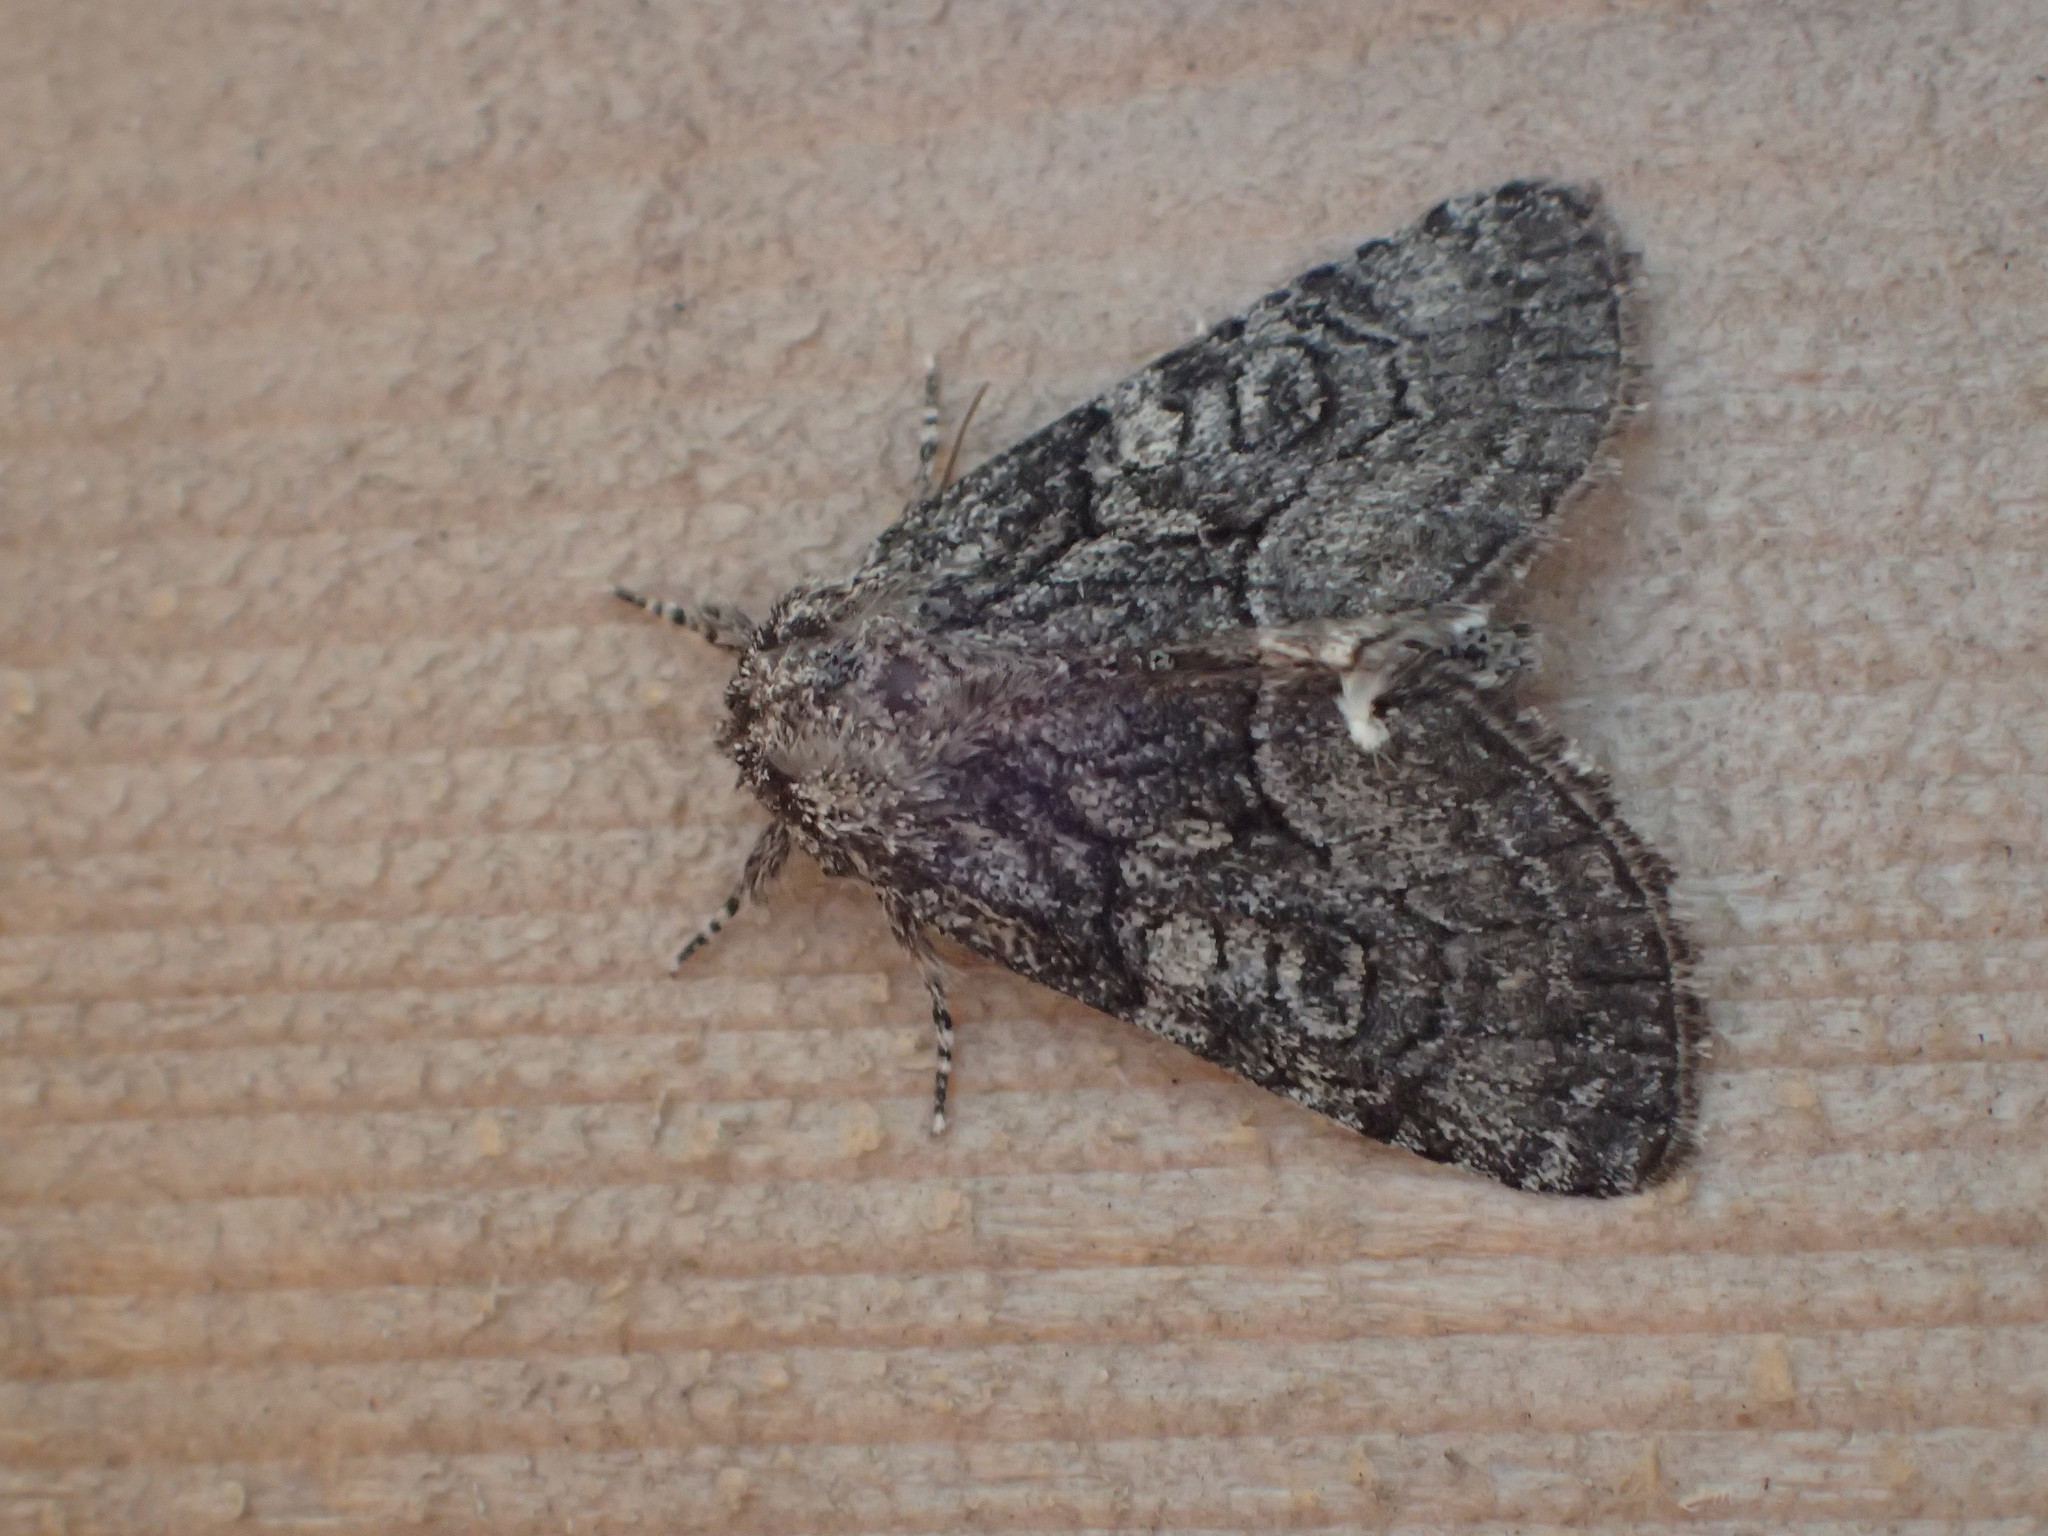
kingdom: Animalia
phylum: Arthropoda
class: Insecta
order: Lepidoptera
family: Noctuidae
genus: Raphia
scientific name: Raphia frater
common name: Brother
